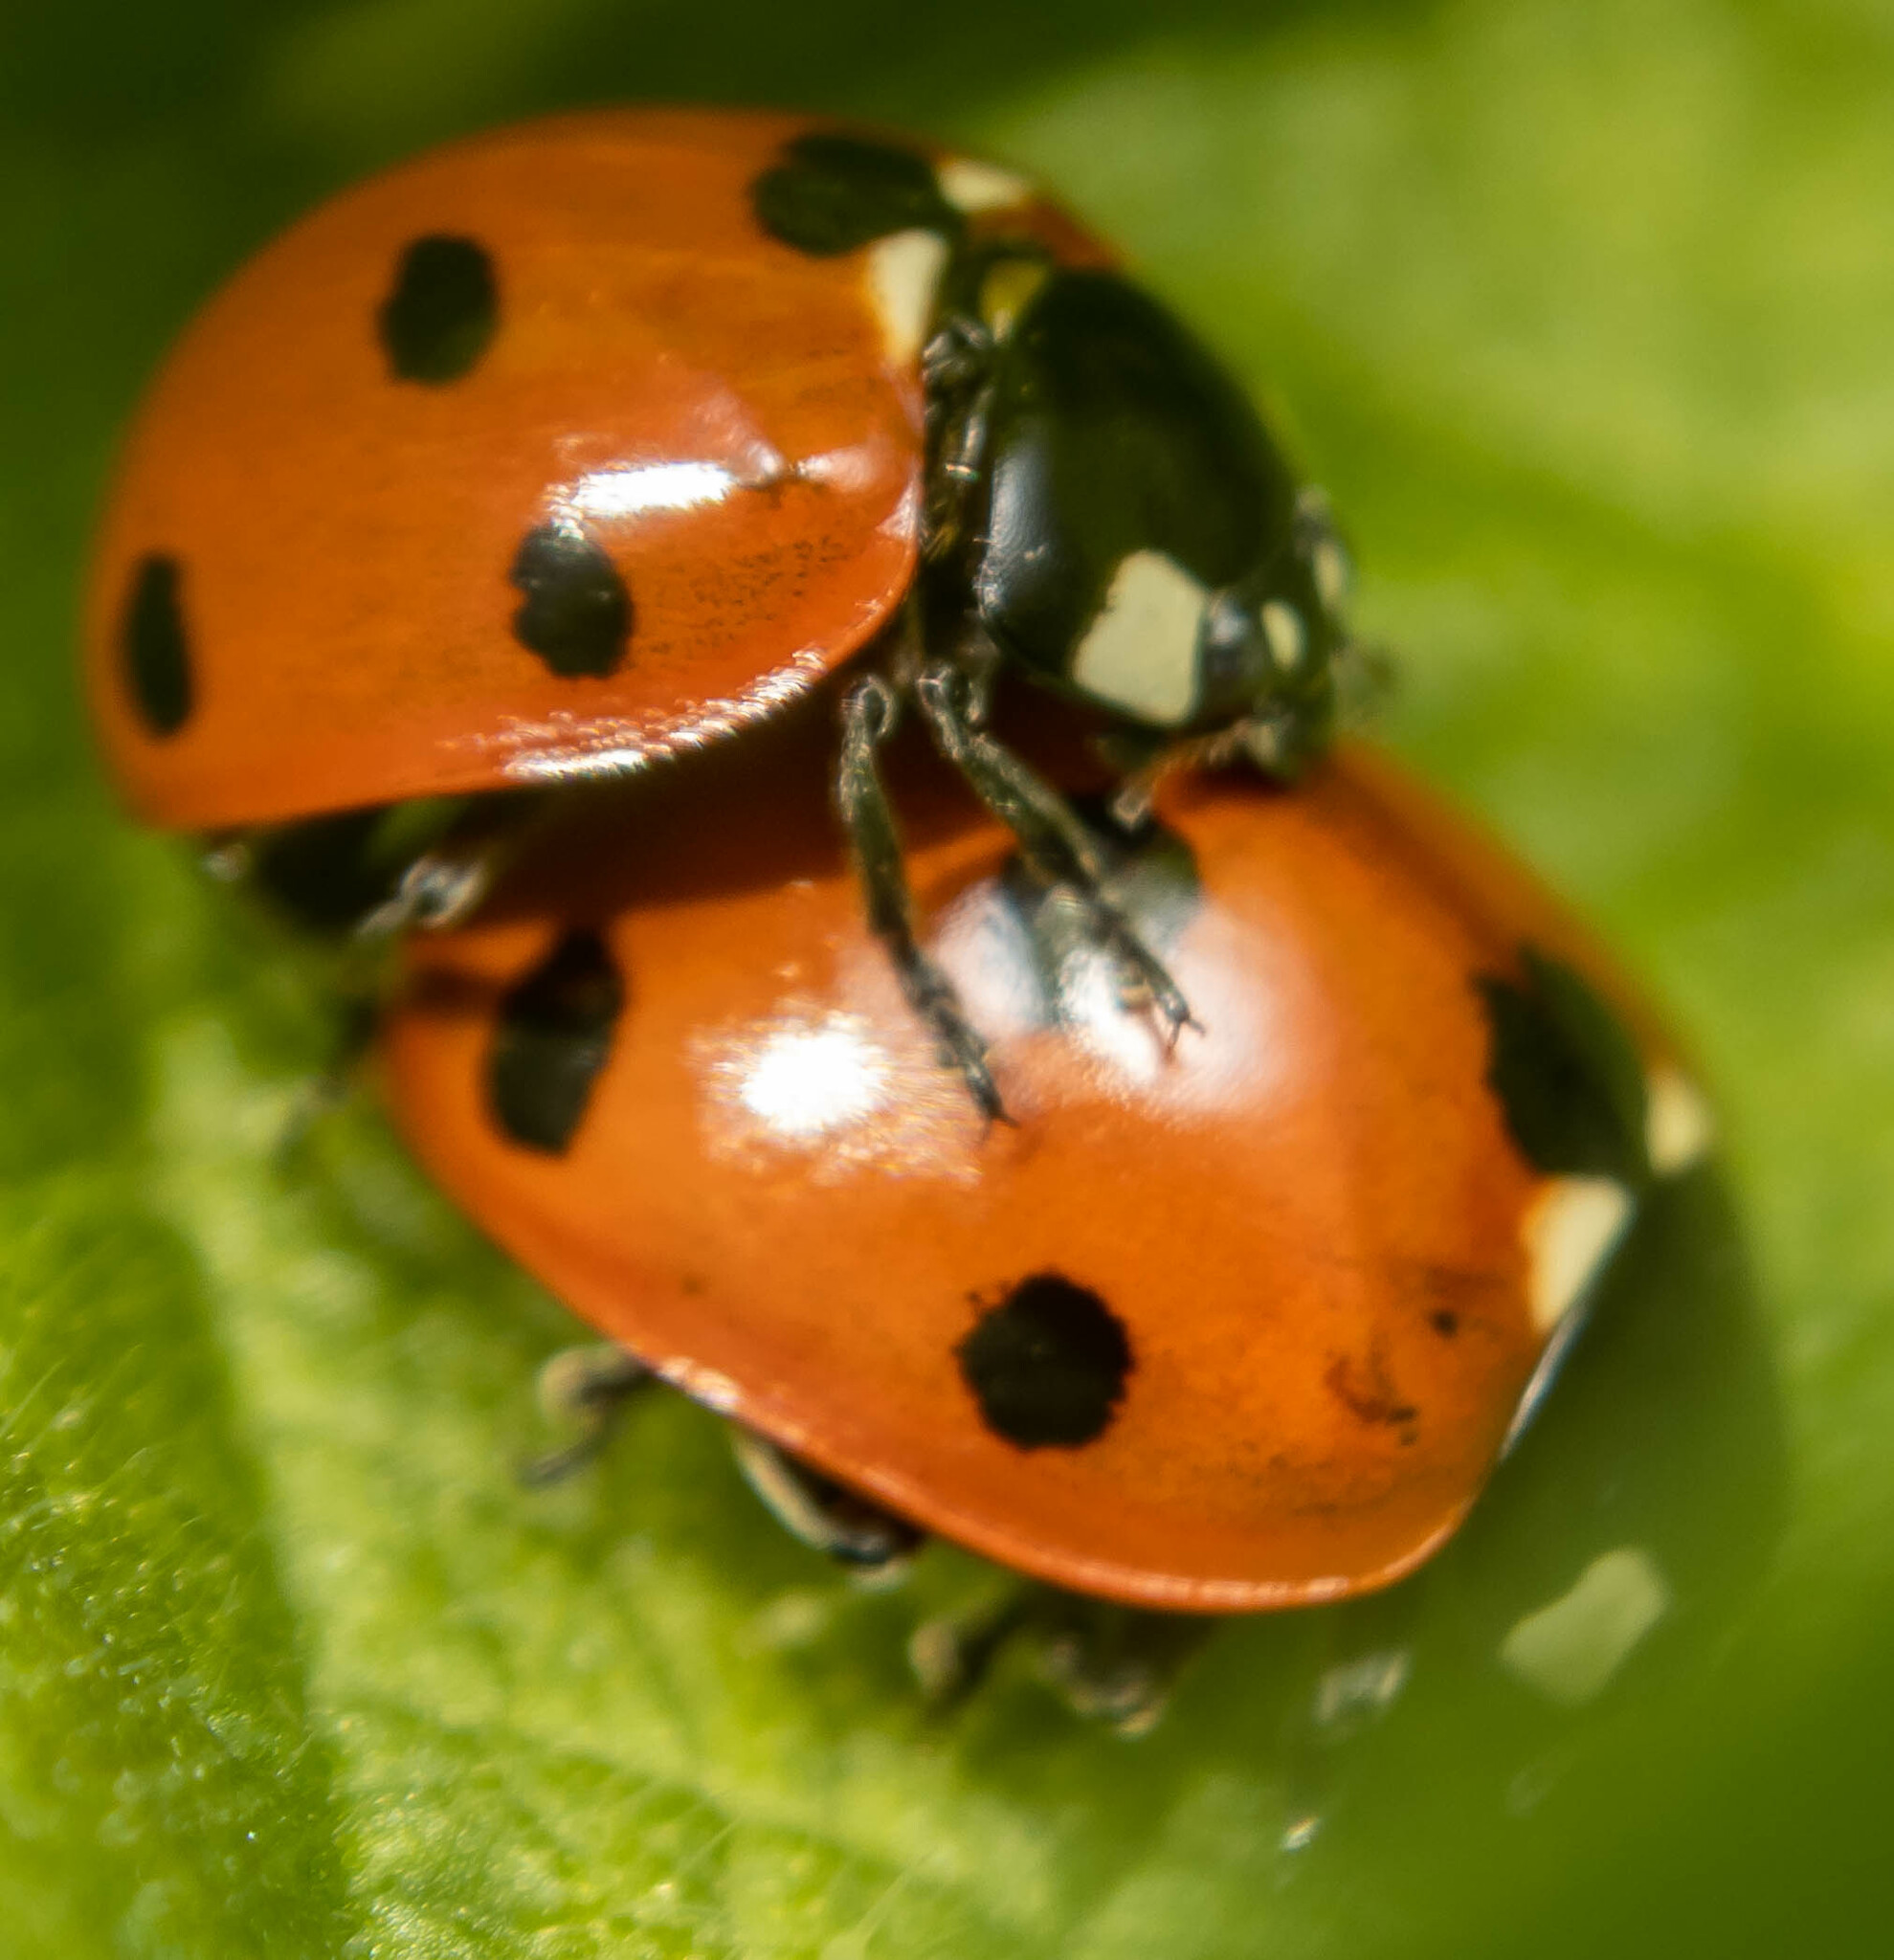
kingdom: Animalia
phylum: Arthropoda
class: Insecta
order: Coleoptera
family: Coccinellidae
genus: Coccinella
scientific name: Coccinella septempunctata
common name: Sevenspotted lady beetle
